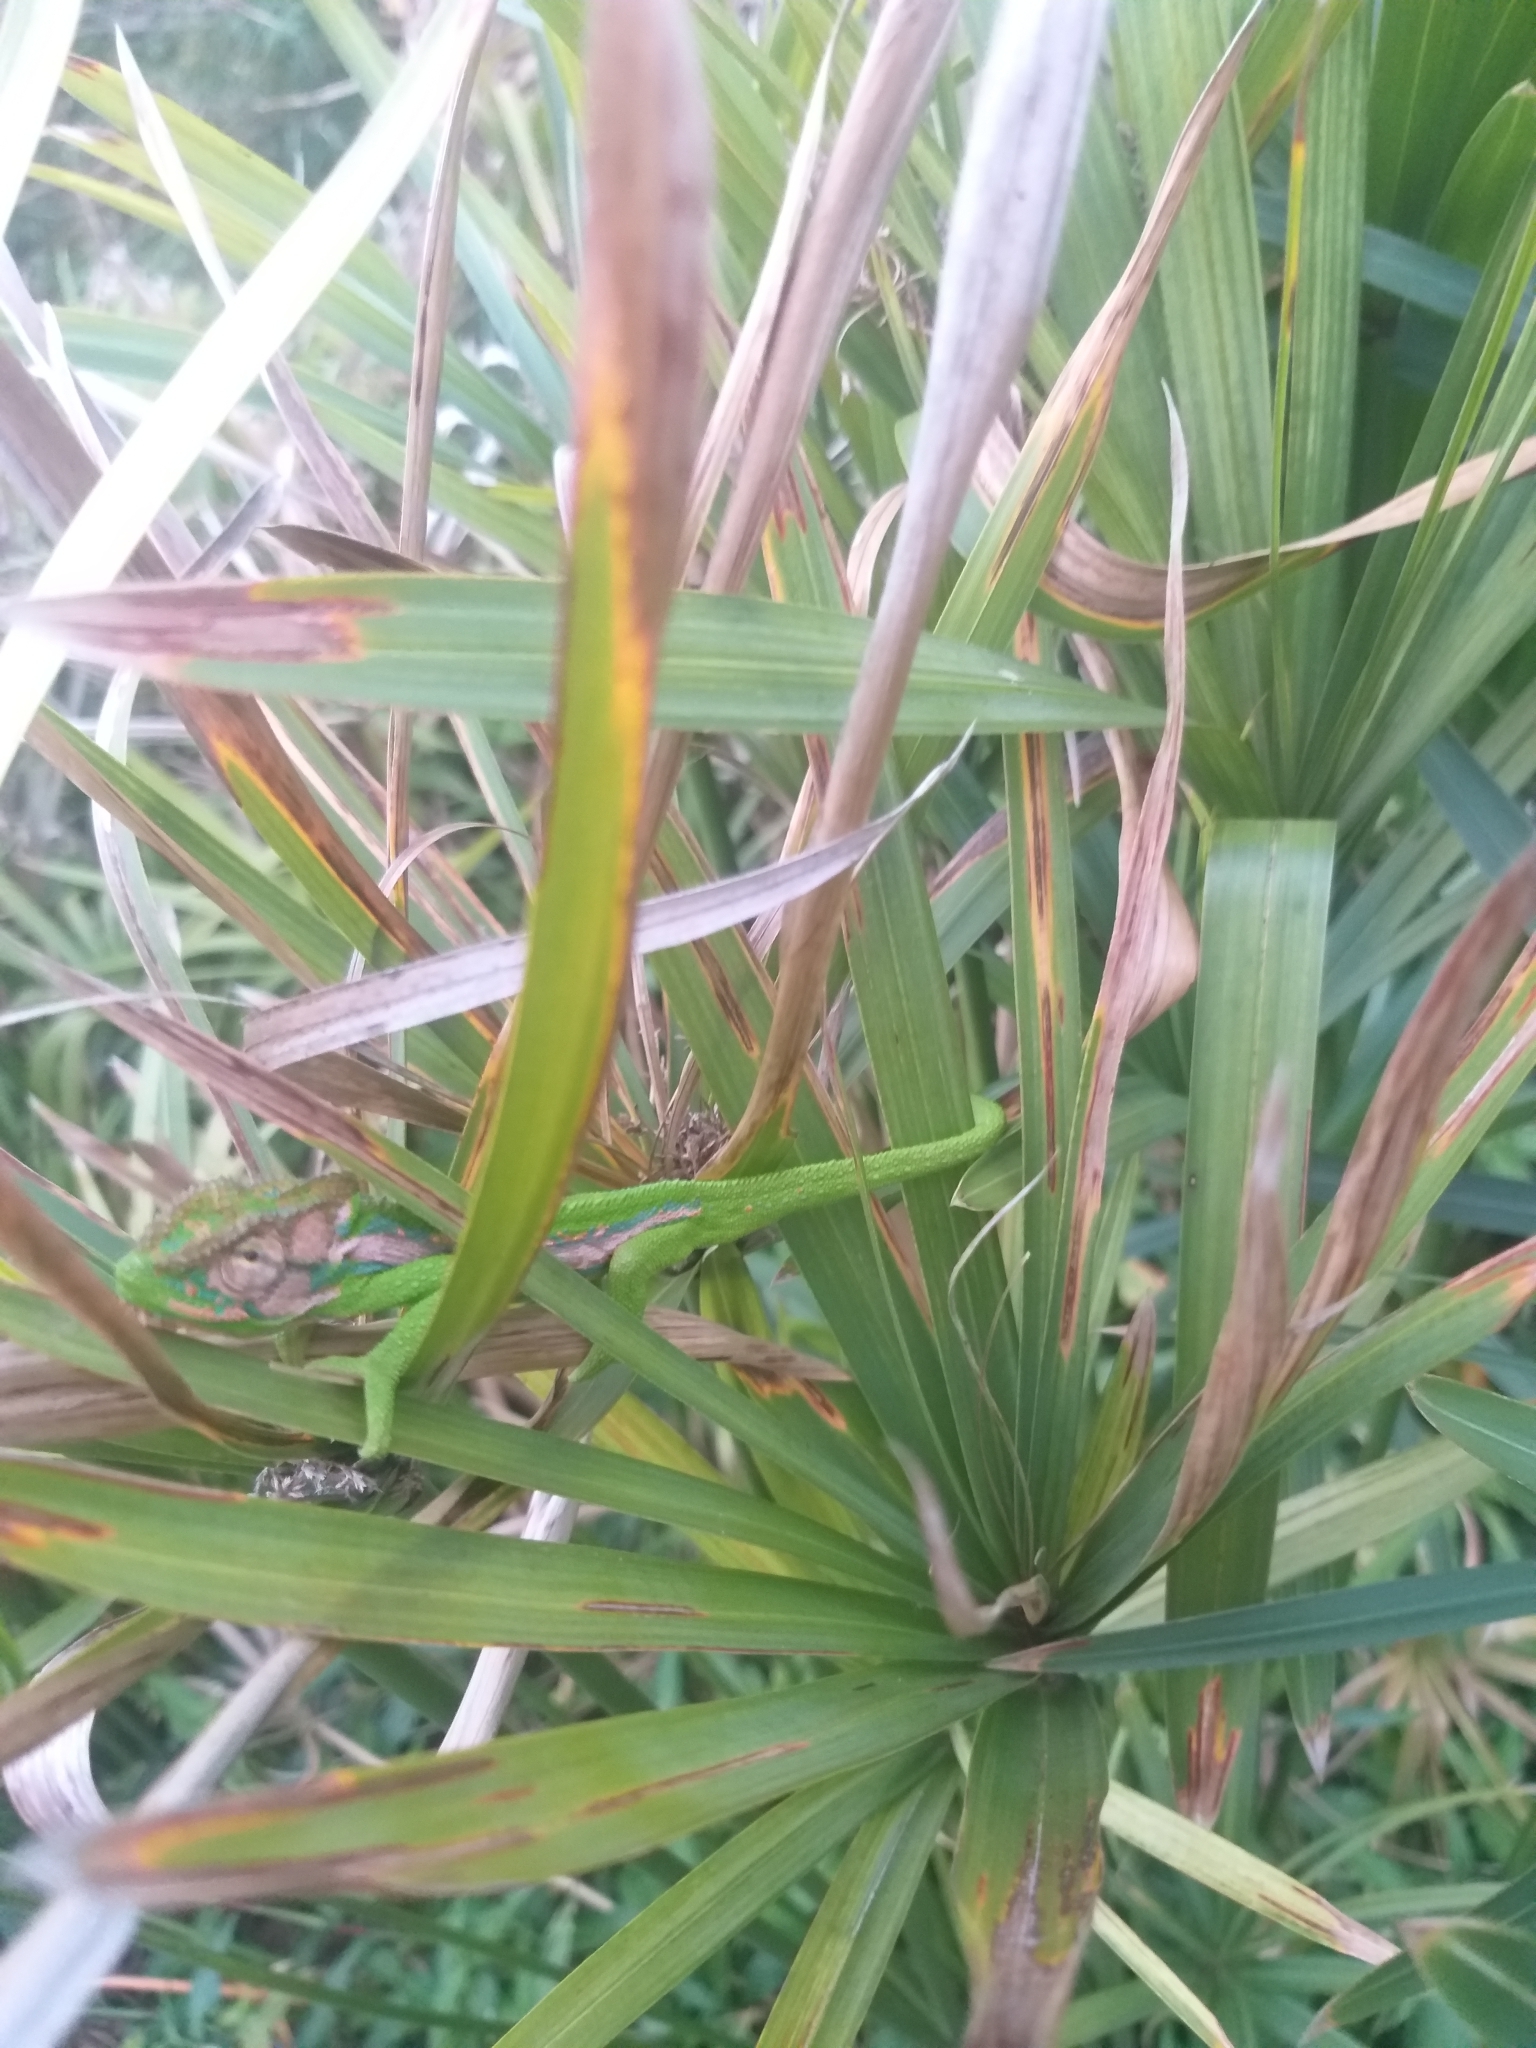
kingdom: Animalia
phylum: Chordata
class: Squamata
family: Chamaeleonidae
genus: Bradypodion
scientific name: Bradypodion pumilum
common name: Cape dwarf chameleon
